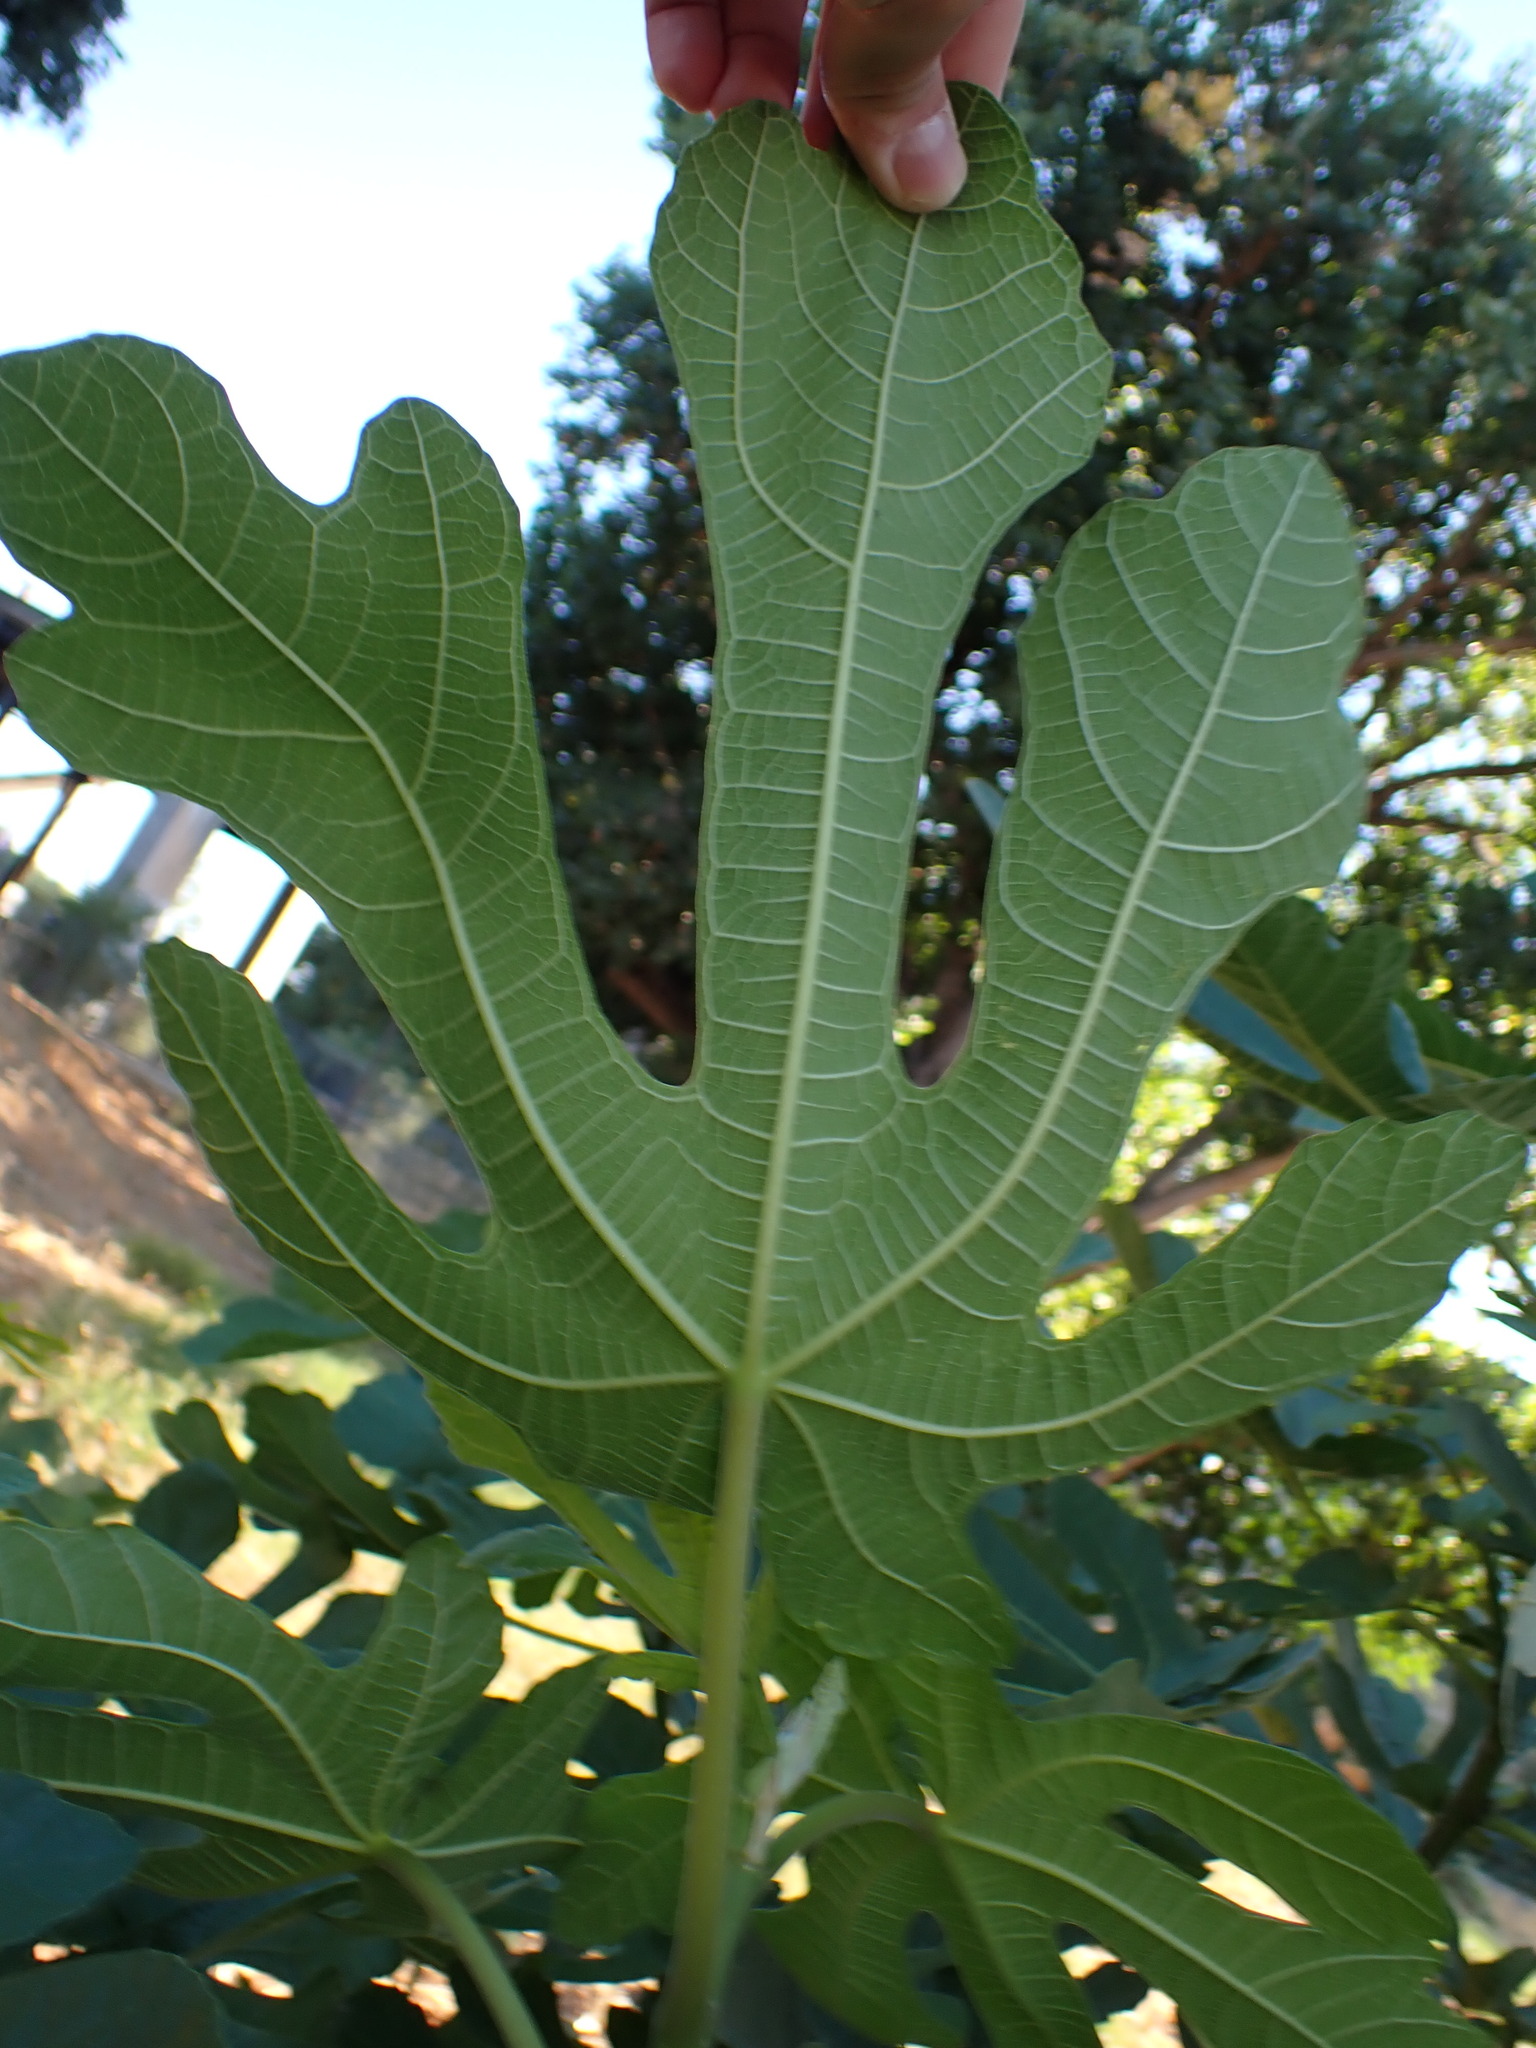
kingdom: Plantae
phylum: Tracheophyta
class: Magnoliopsida
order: Rosales
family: Moraceae
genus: Ficus
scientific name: Ficus carica
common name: Fig
